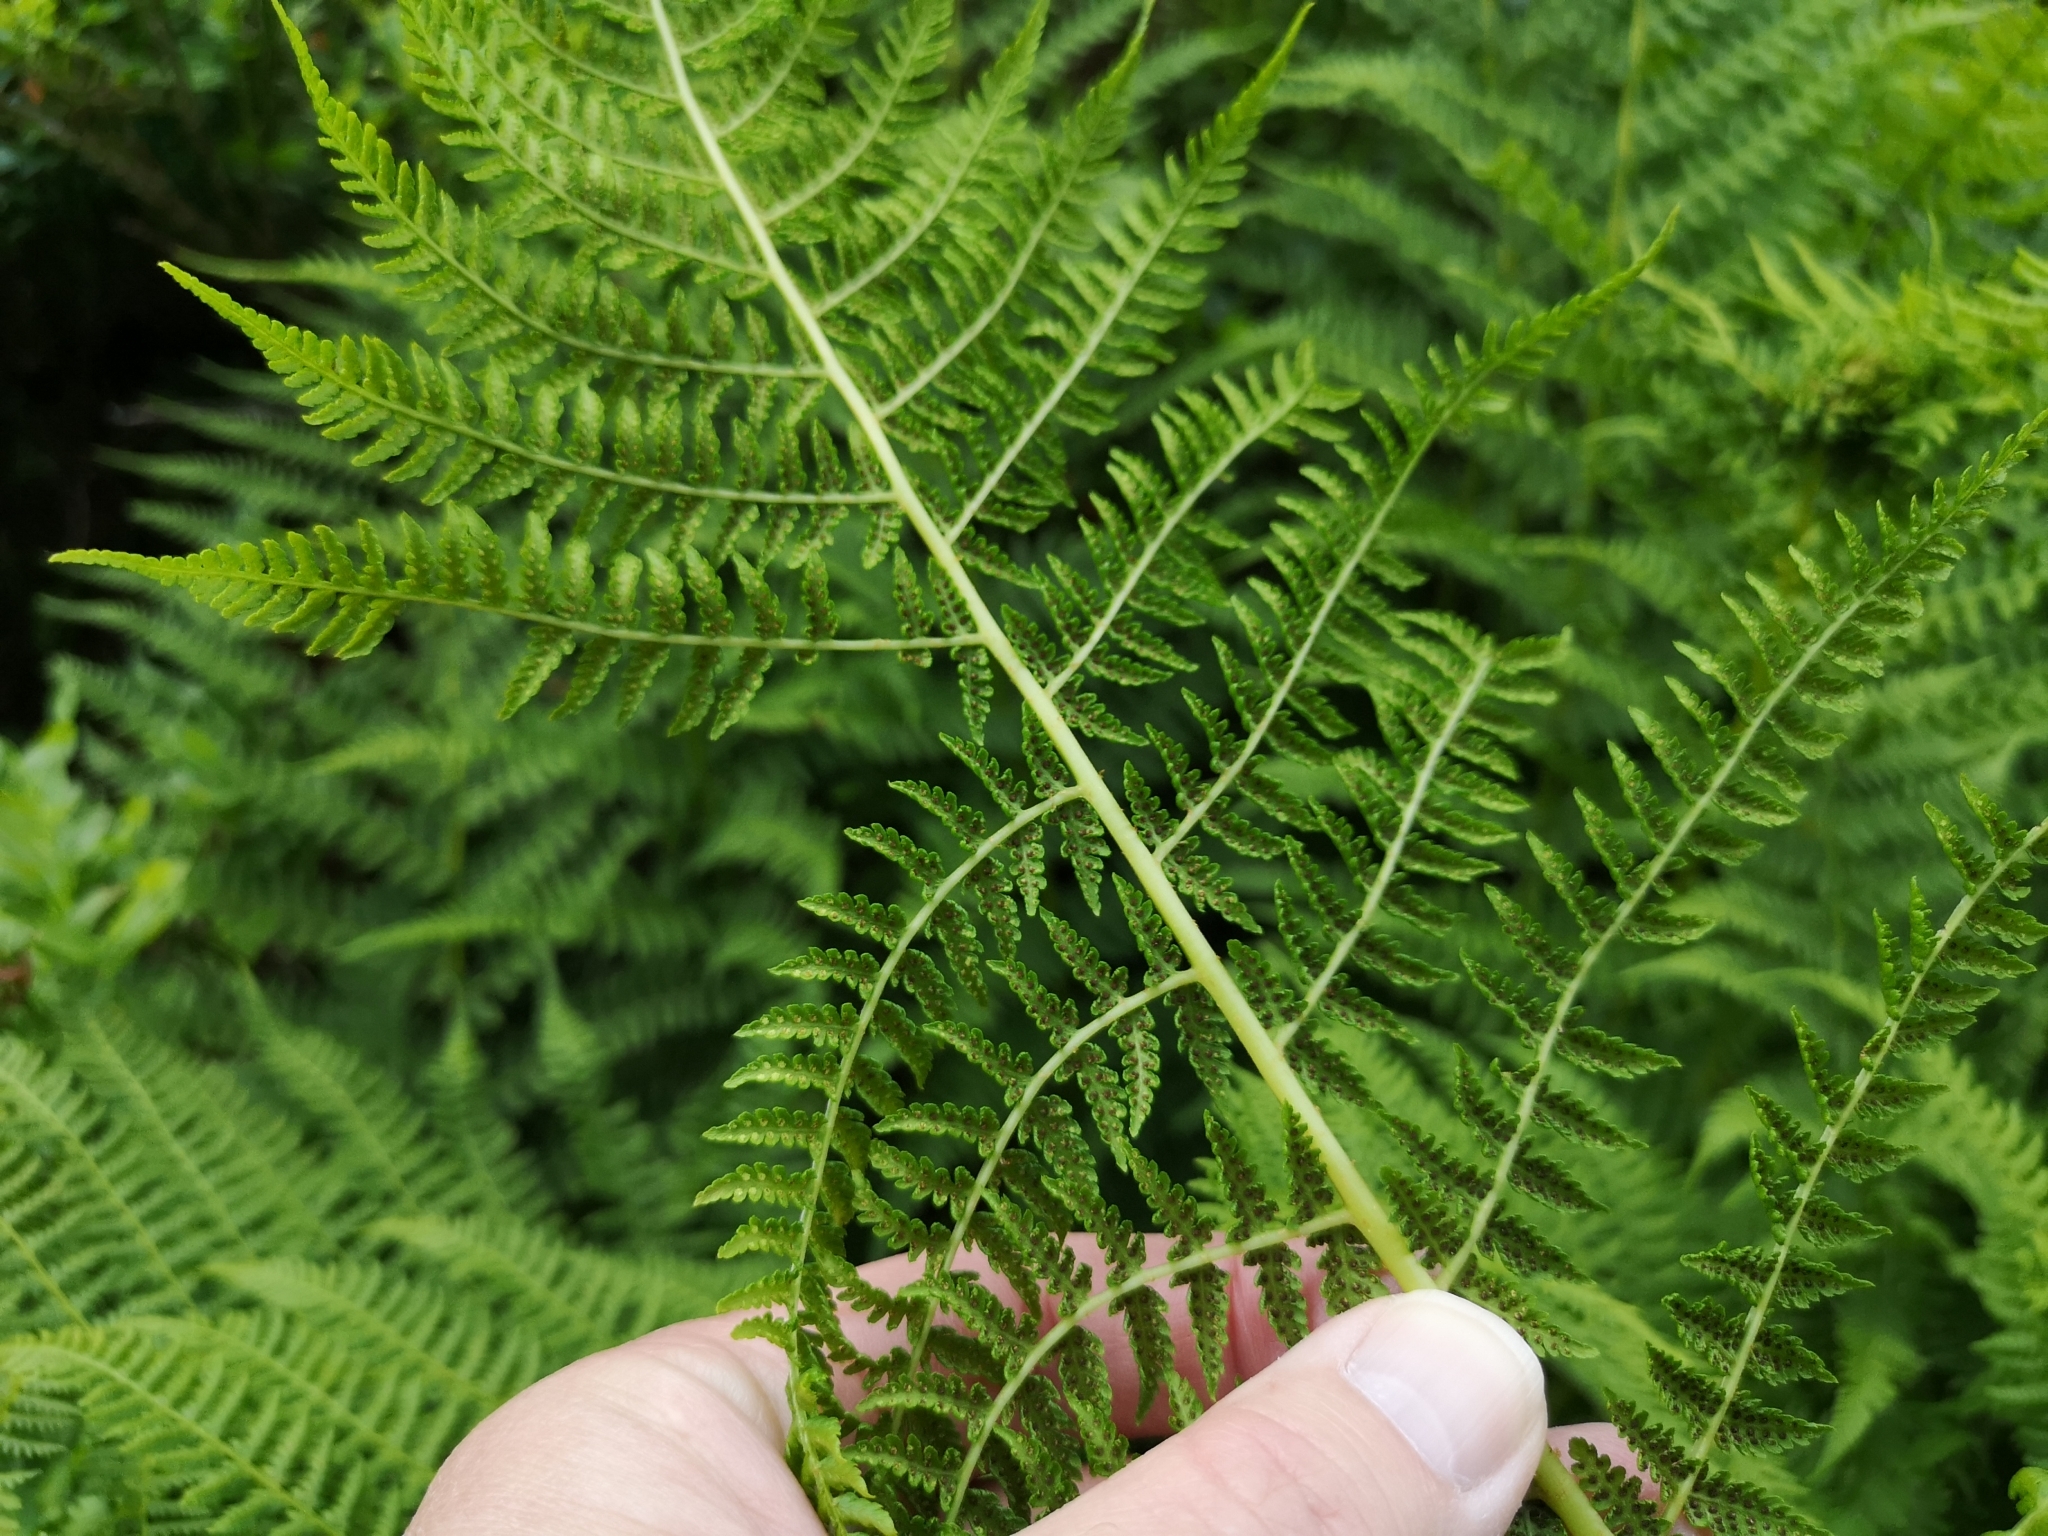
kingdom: Plantae
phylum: Tracheophyta
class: Polypodiopsida
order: Polypodiales
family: Athyriaceae
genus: Pseudathyrium
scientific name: Pseudathyrium alpestre
